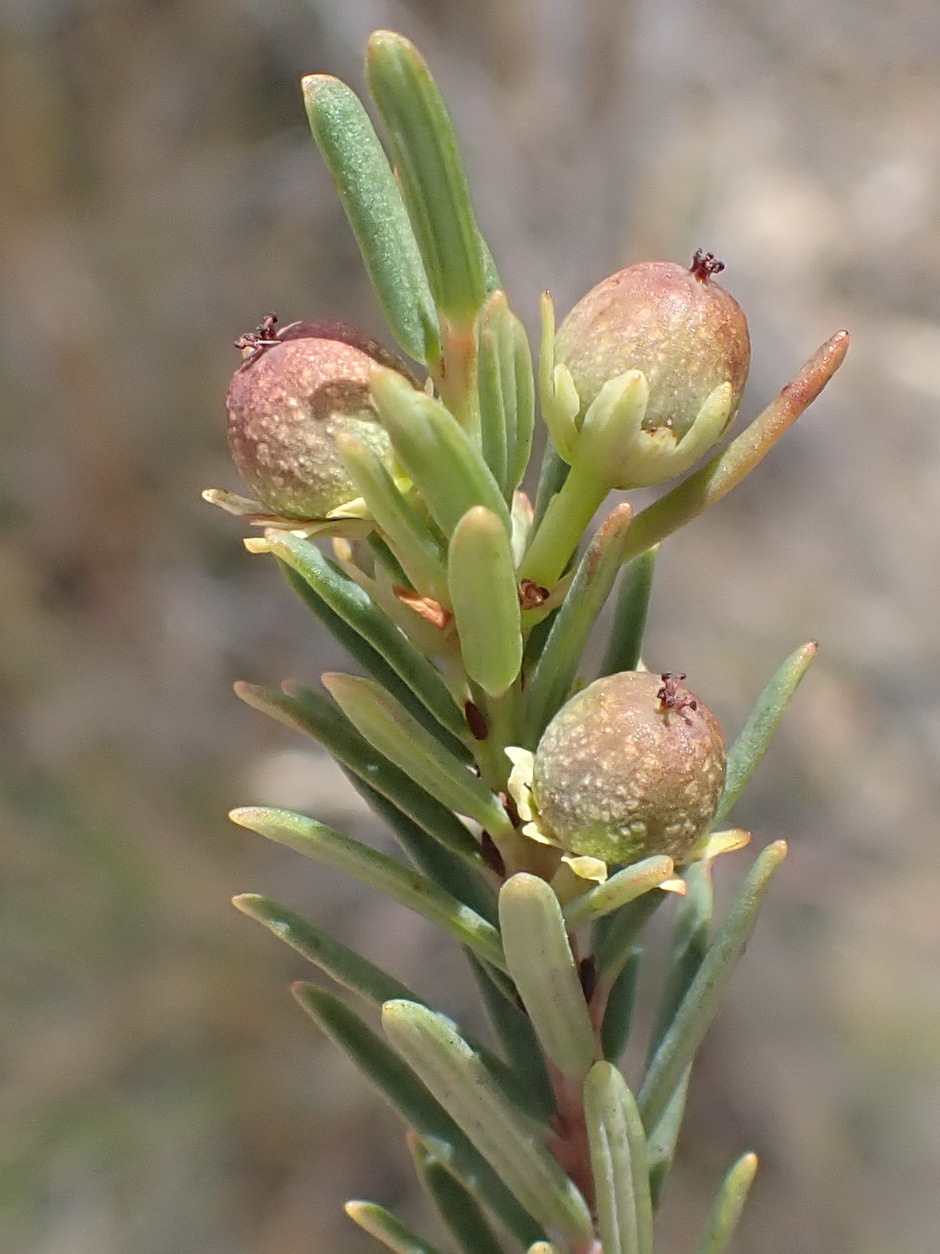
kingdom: Plantae
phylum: Tracheophyta
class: Magnoliopsida
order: Malpighiales
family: Peraceae
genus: Clutia
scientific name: Clutia laxa
